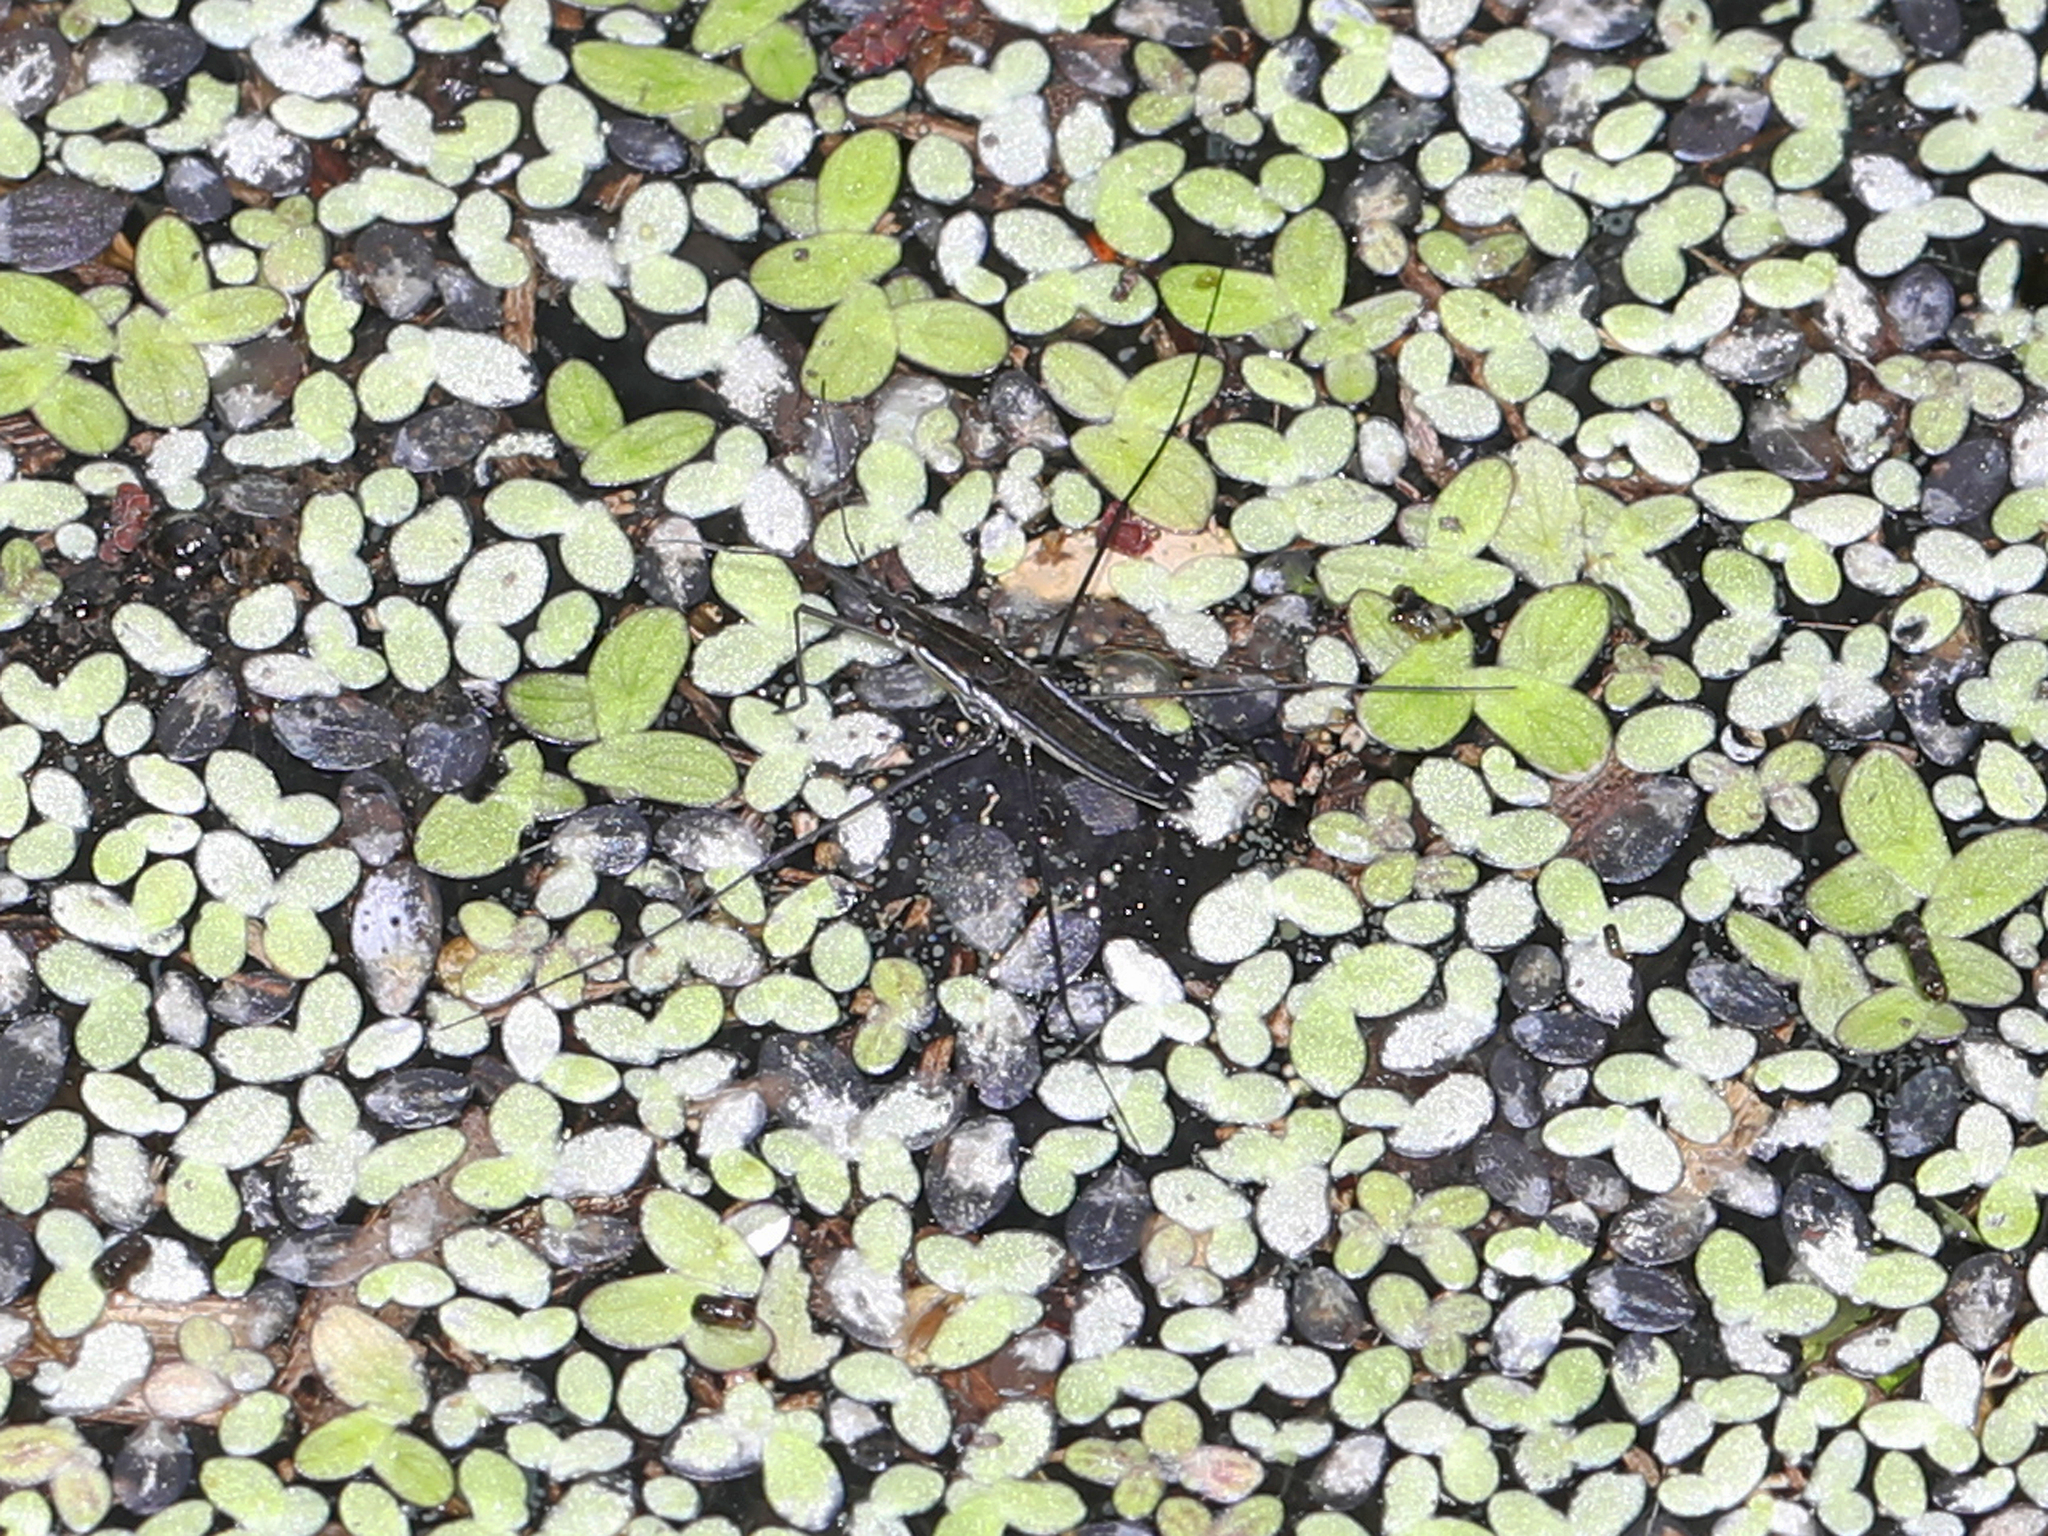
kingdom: Animalia
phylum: Arthropoda
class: Insecta
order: Hemiptera
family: Gerridae
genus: Limnoporus
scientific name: Limnoporus canaliculatus
